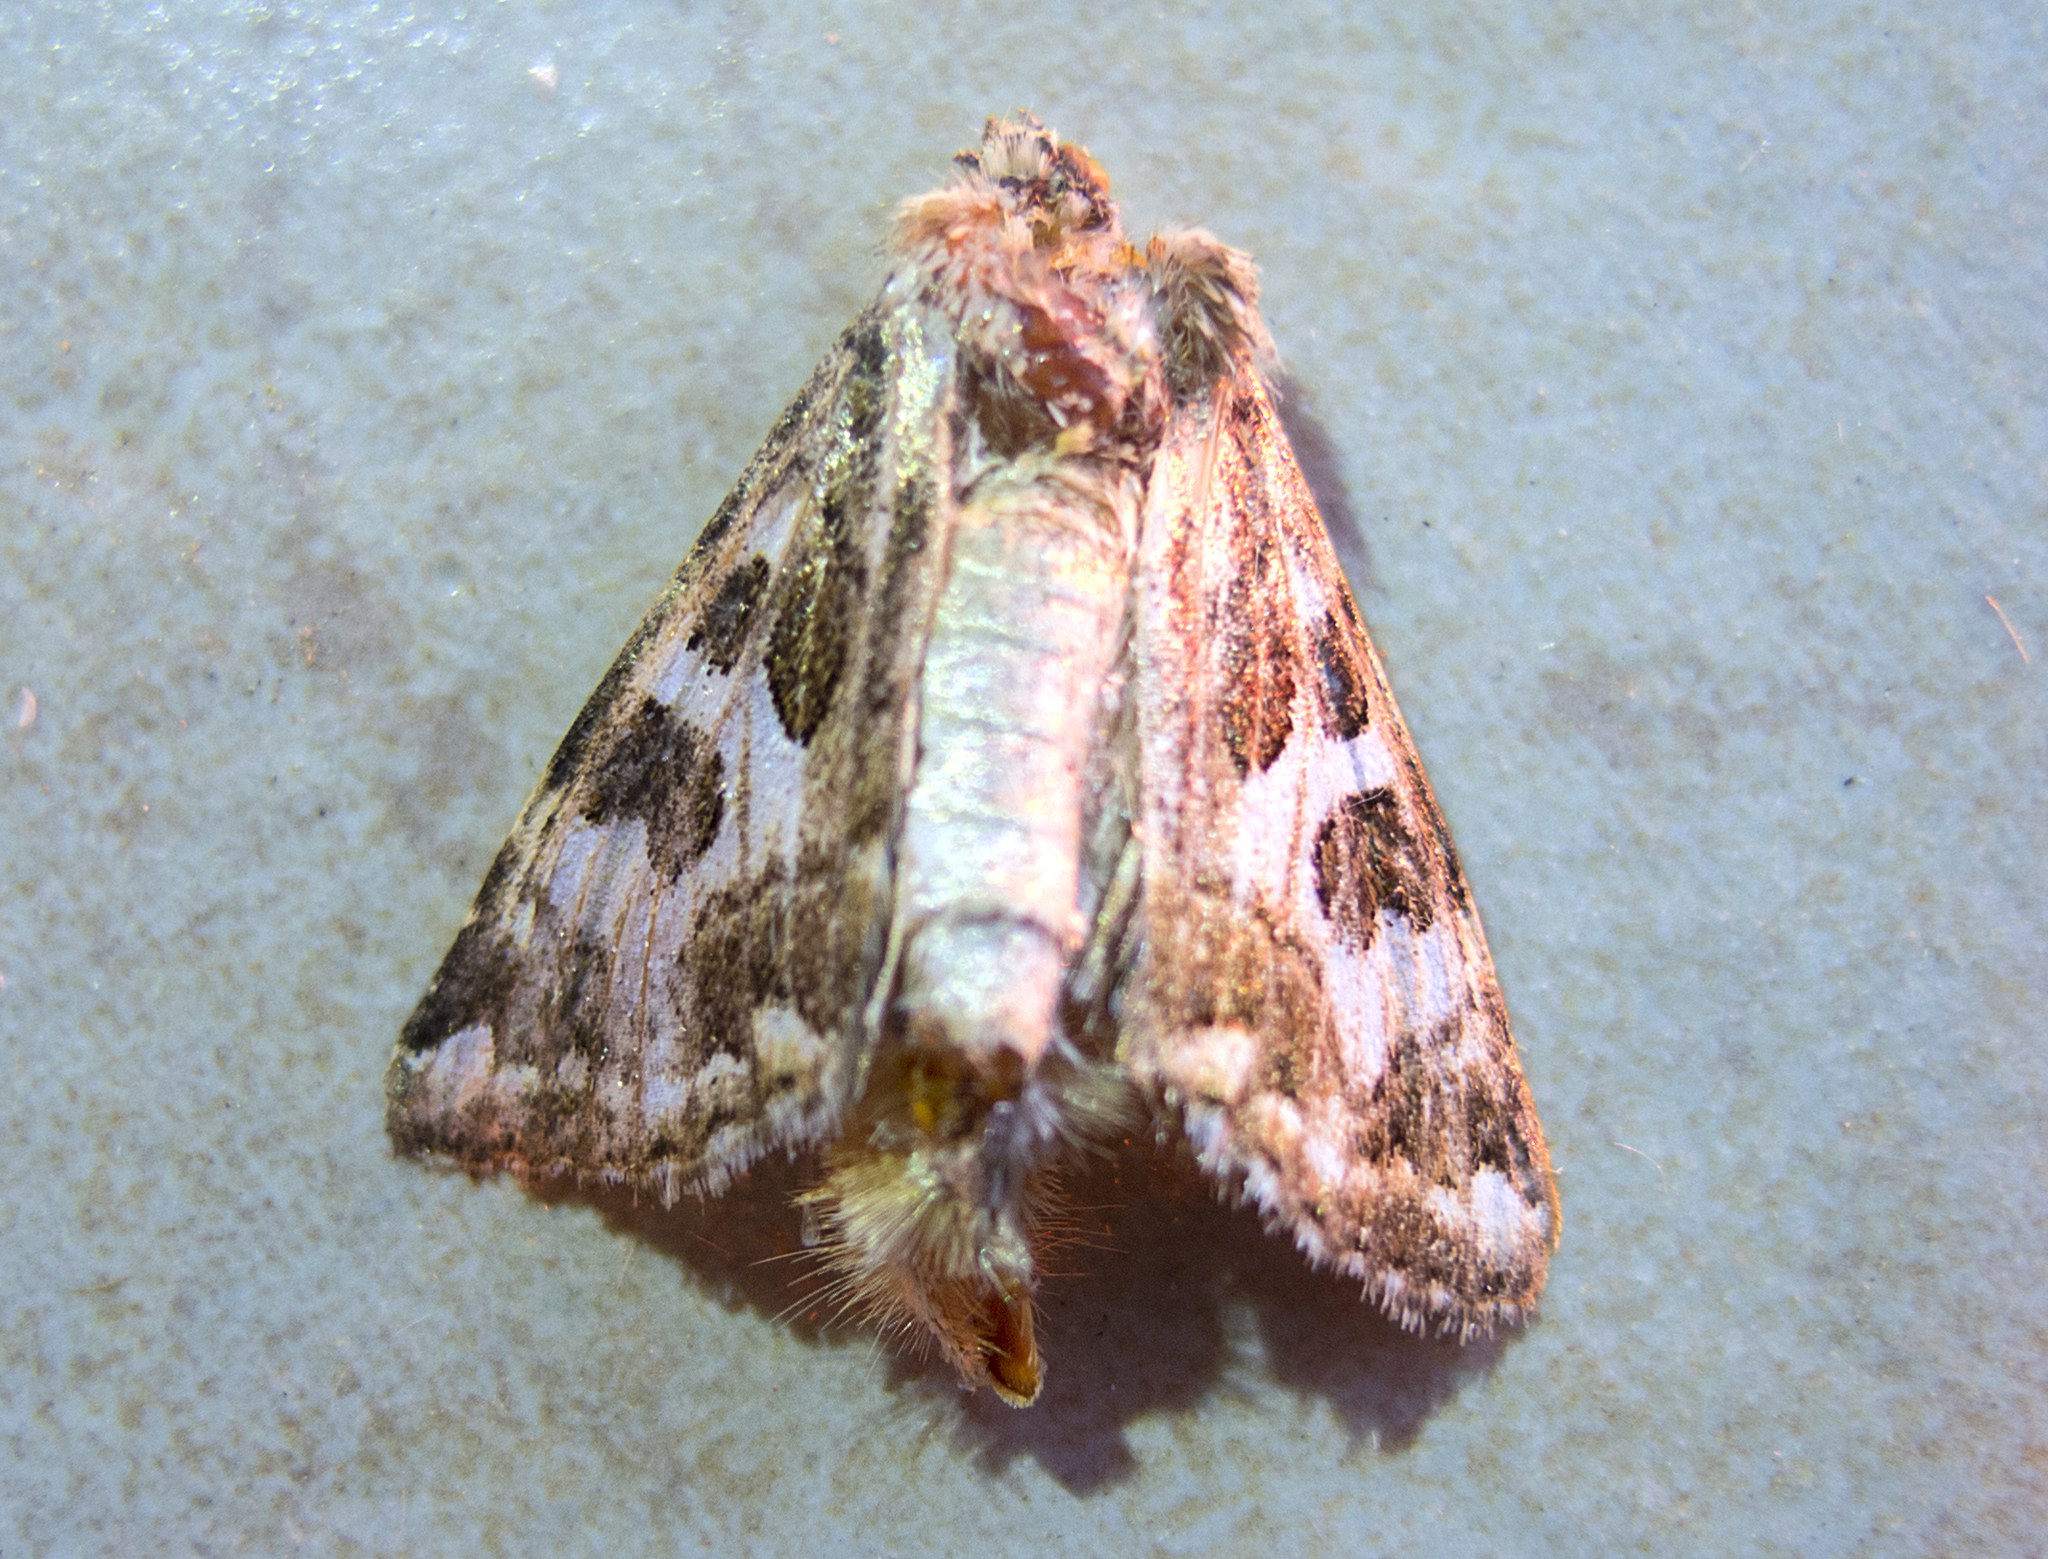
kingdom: Animalia
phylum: Arthropoda
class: Insecta
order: Lepidoptera
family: Noctuidae
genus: Protoschinia
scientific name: Protoschinia scutosa
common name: Spotted clover
